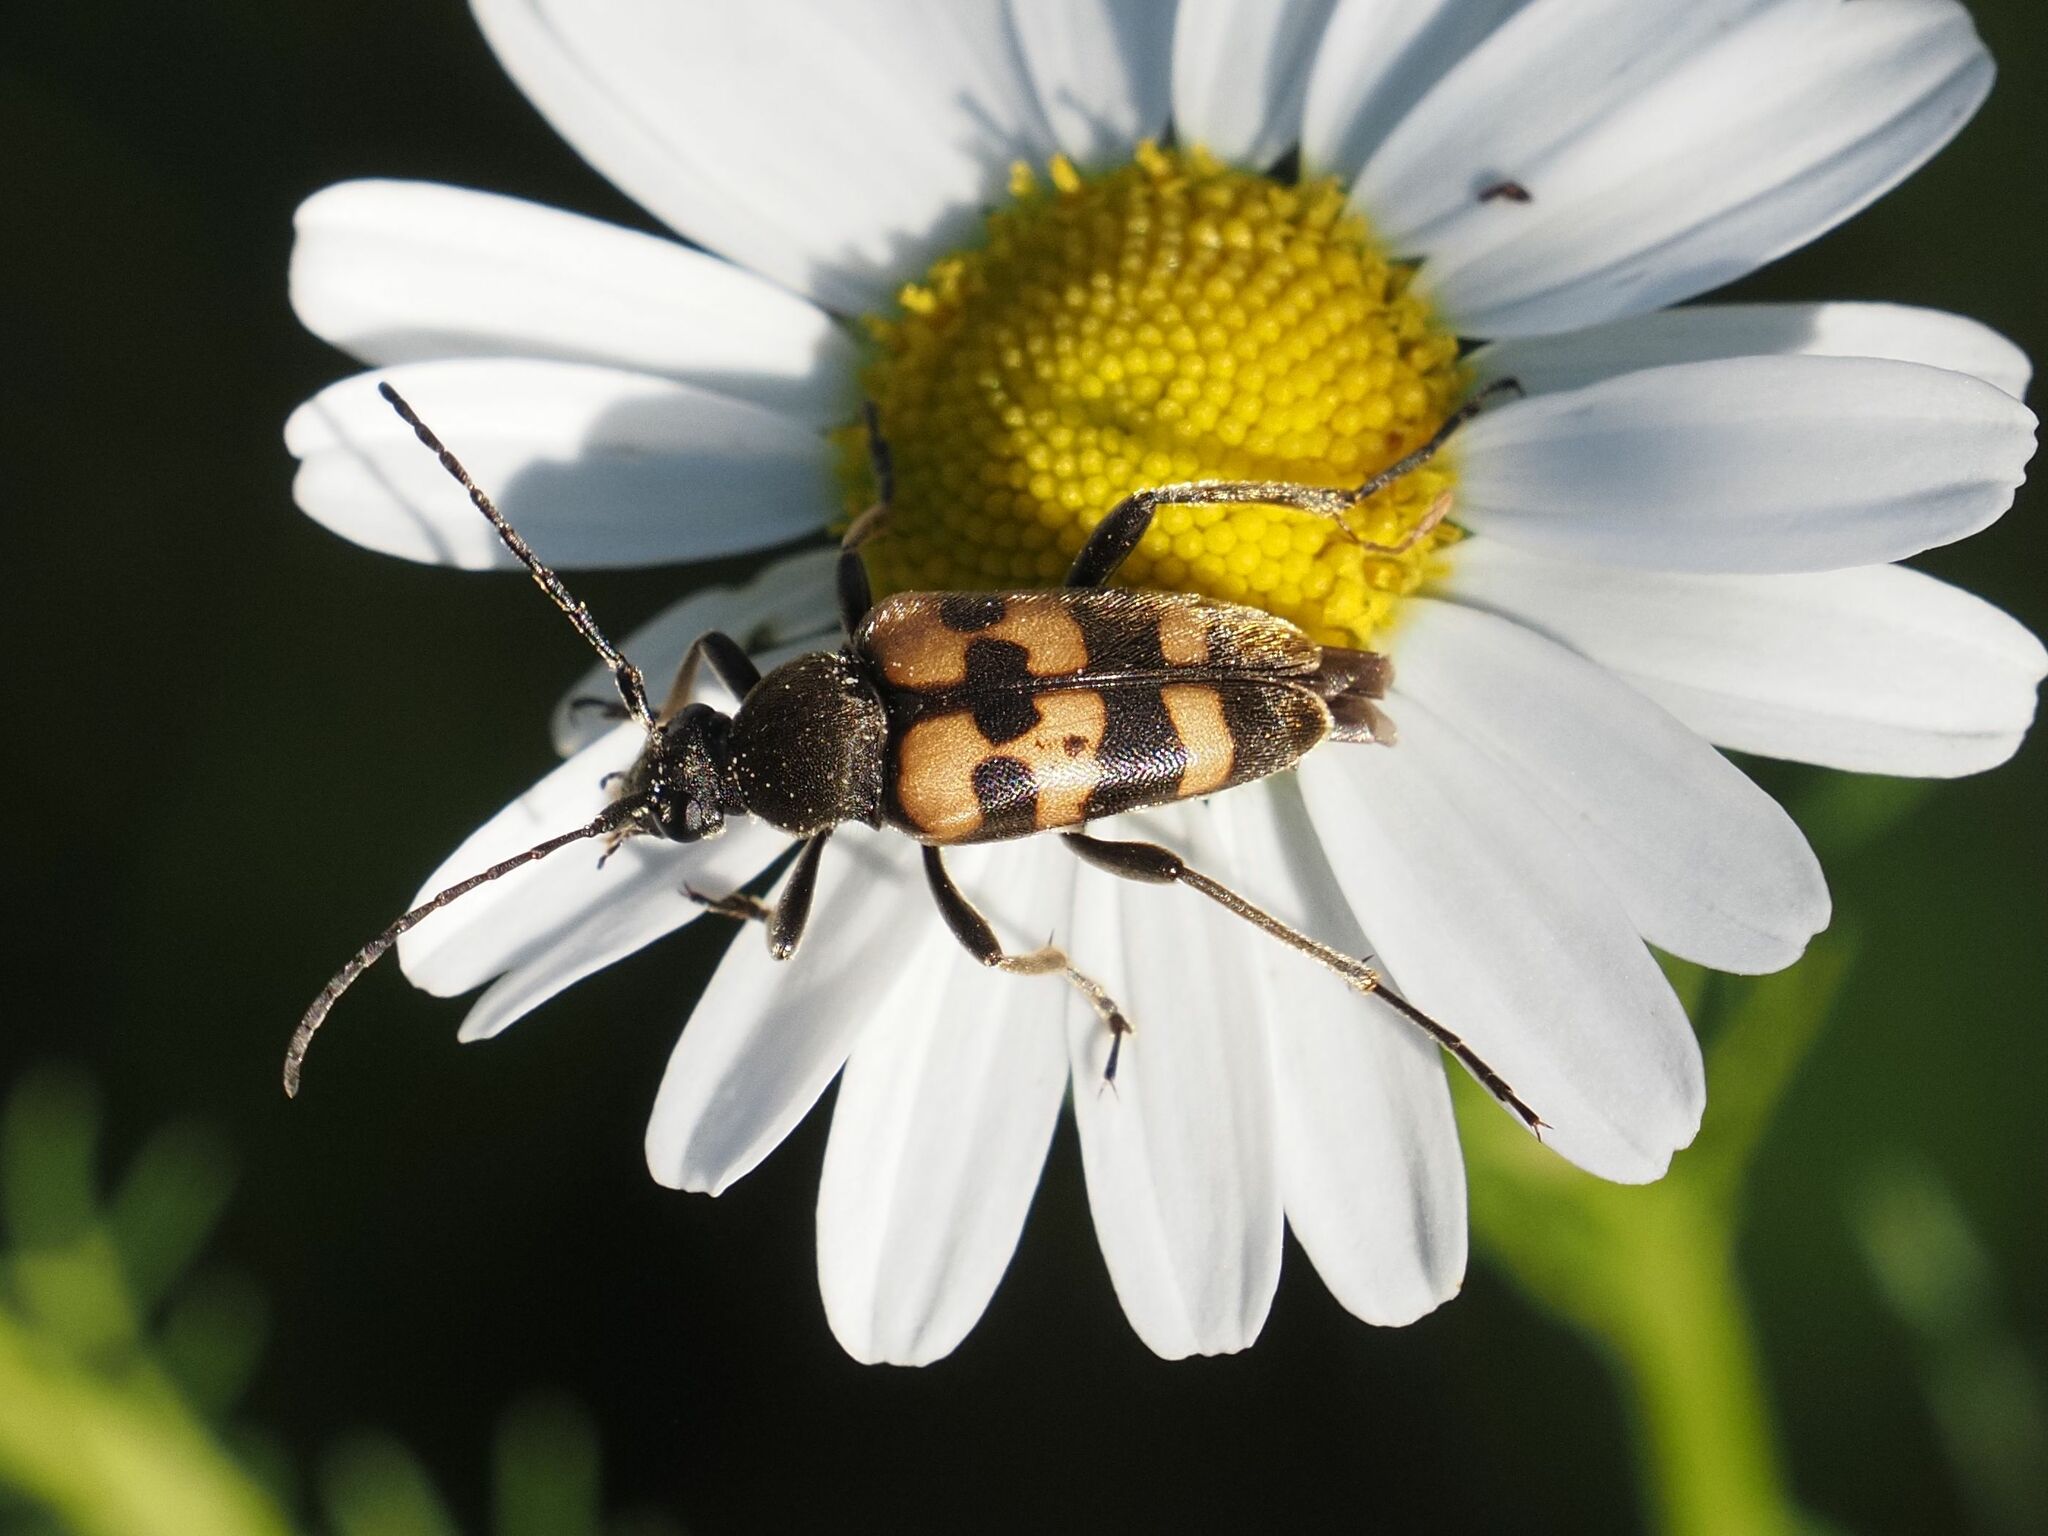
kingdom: Animalia
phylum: Arthropoda
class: Insecta
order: Coleoptera
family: Cerambycidae
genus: Pachytodes
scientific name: Pachytodes
